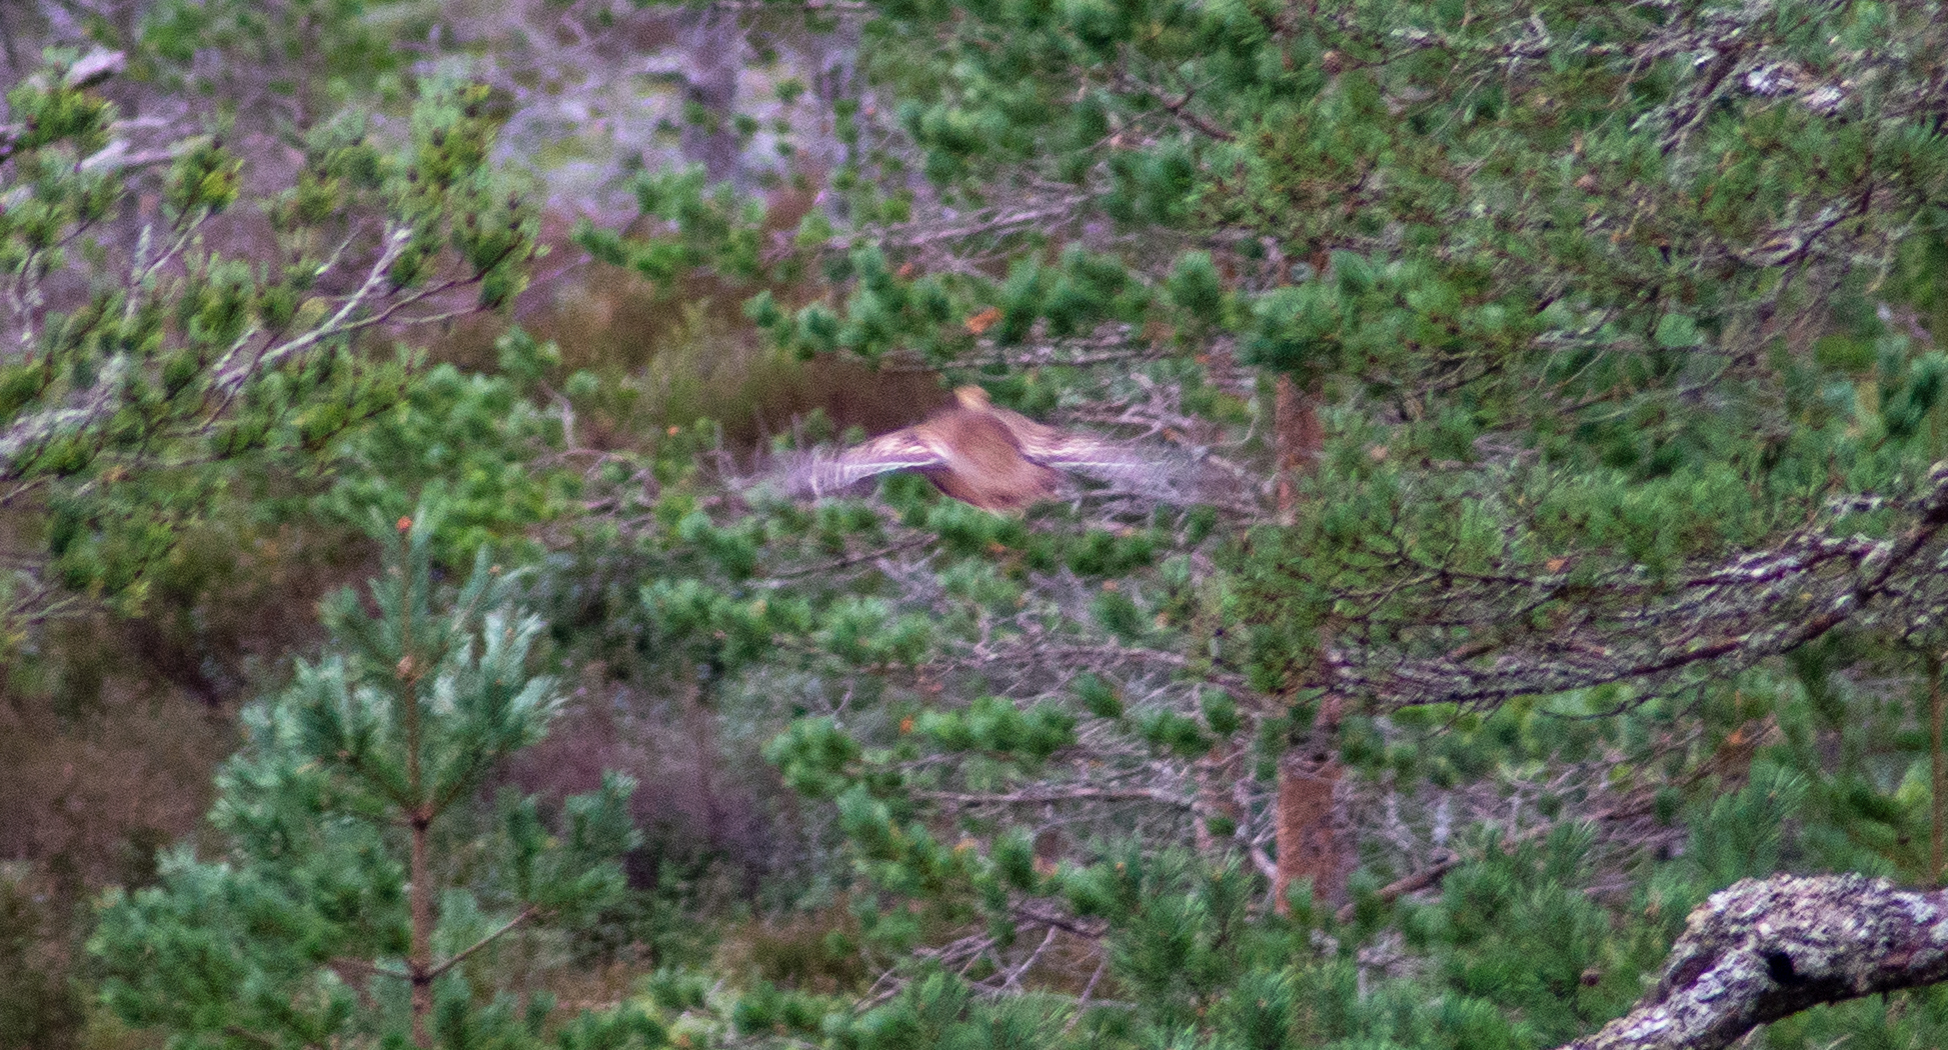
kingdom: Animalia
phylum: Chordata
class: Aves
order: Galliformes
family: Phasianidae
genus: Lyrurus
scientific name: Lyrurus tetrix
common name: Black grouse
